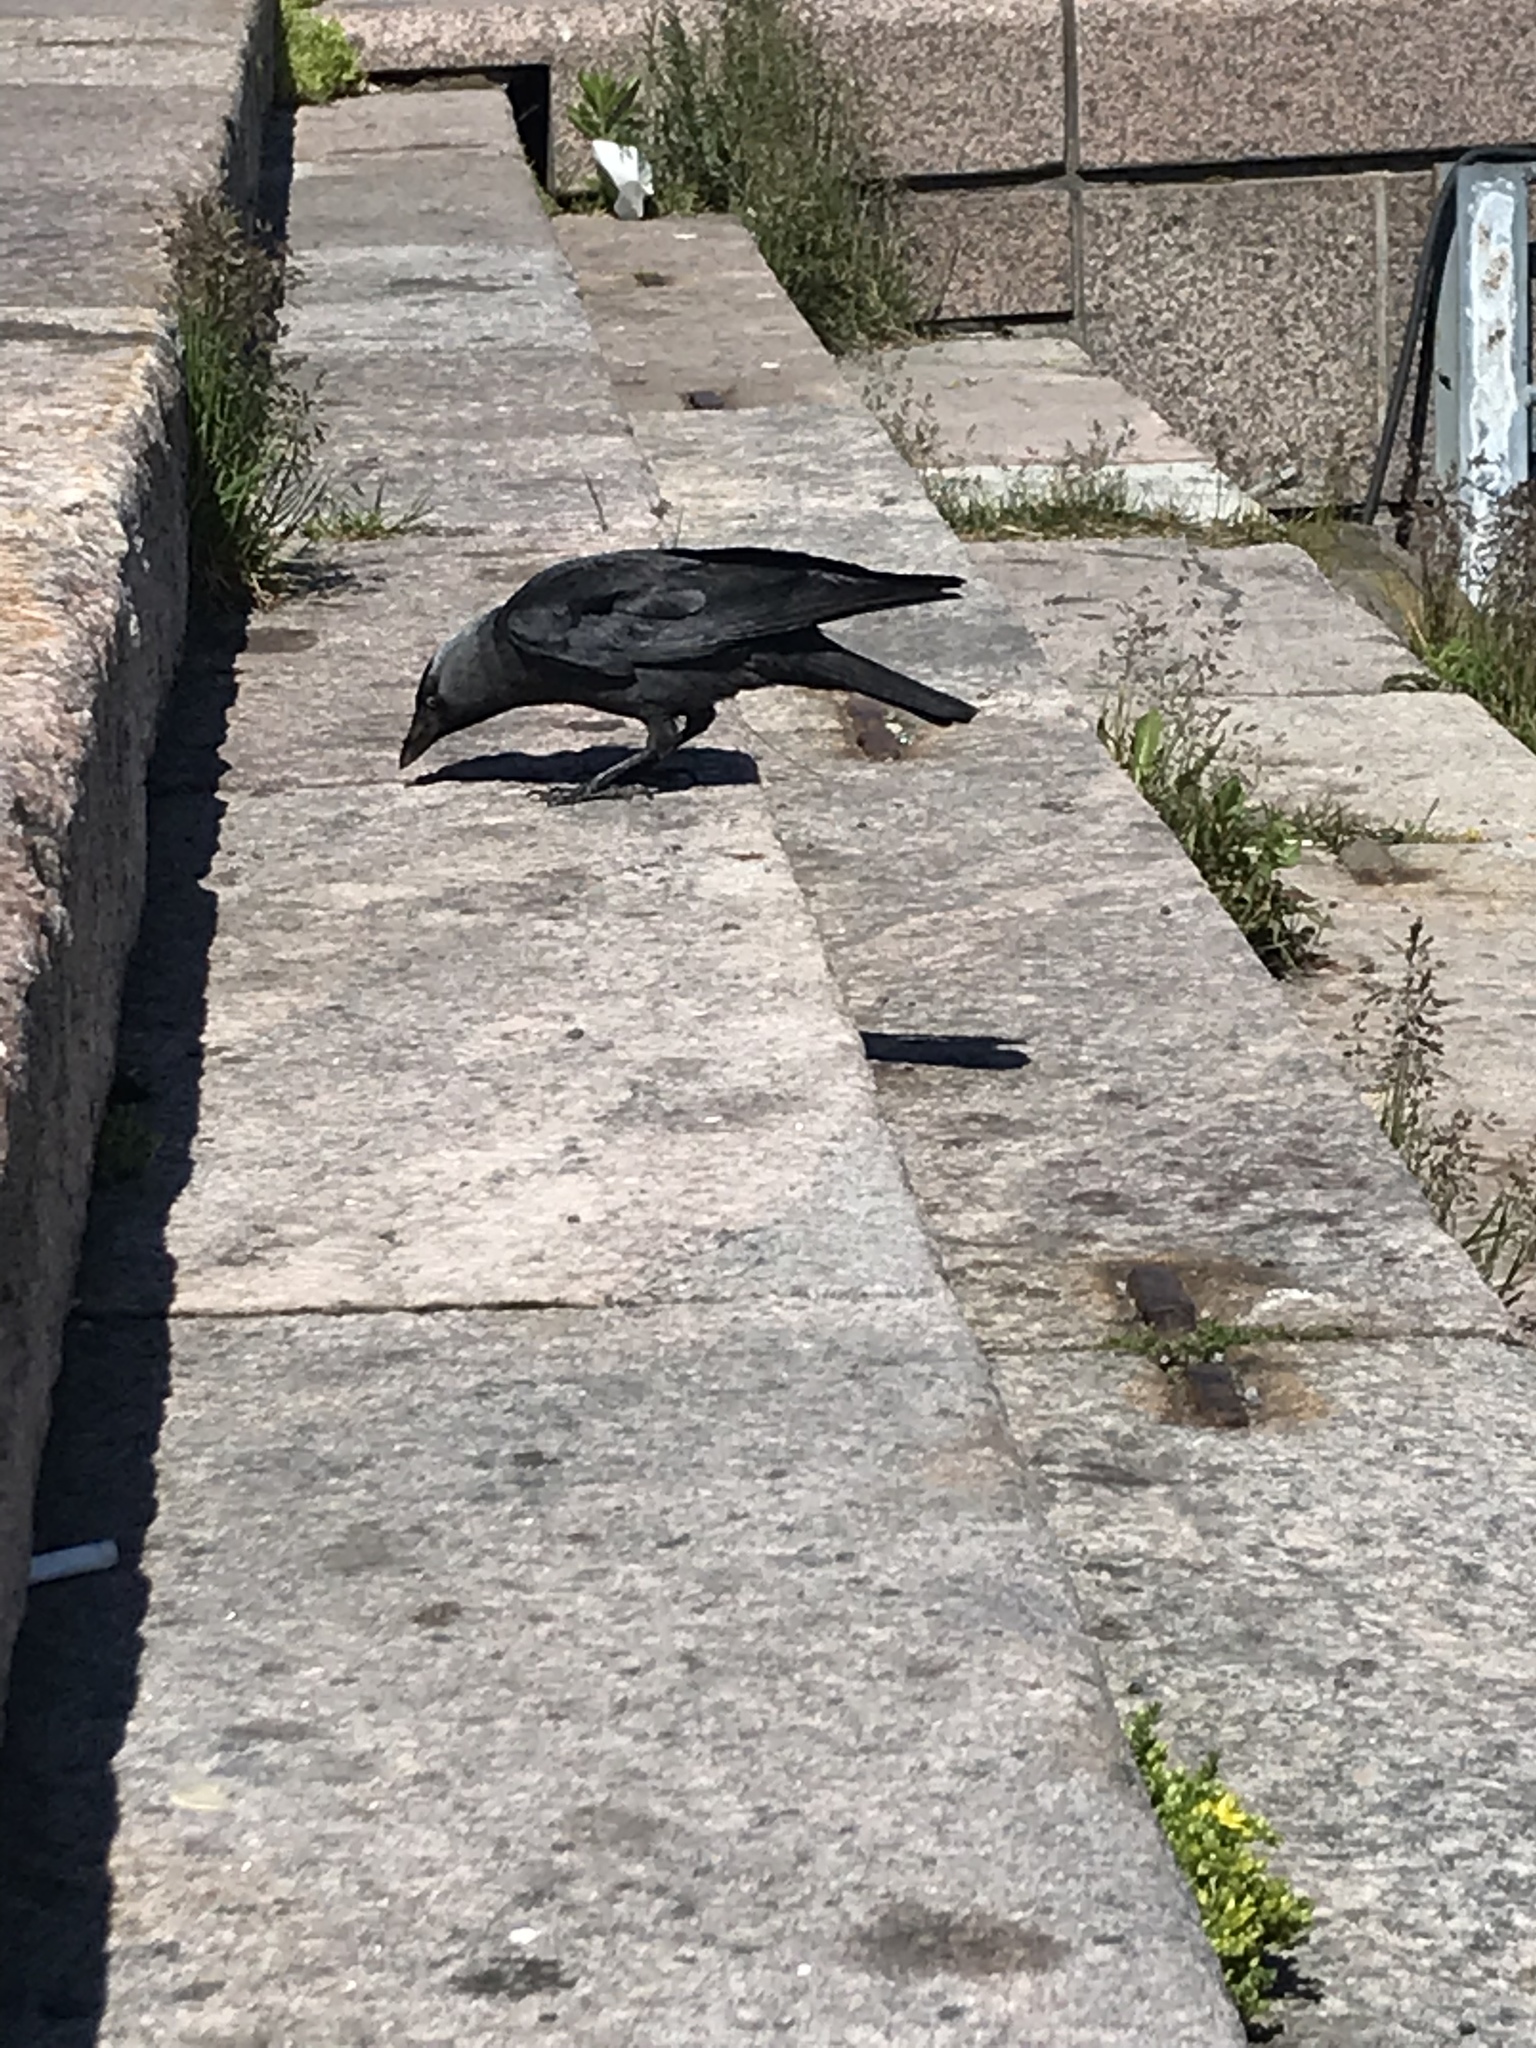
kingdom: Animalia
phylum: Chordata
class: Aves
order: Passeriformes
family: Corvidae
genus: Coloeus
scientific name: Coloeus monedula
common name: Western jackdaw
